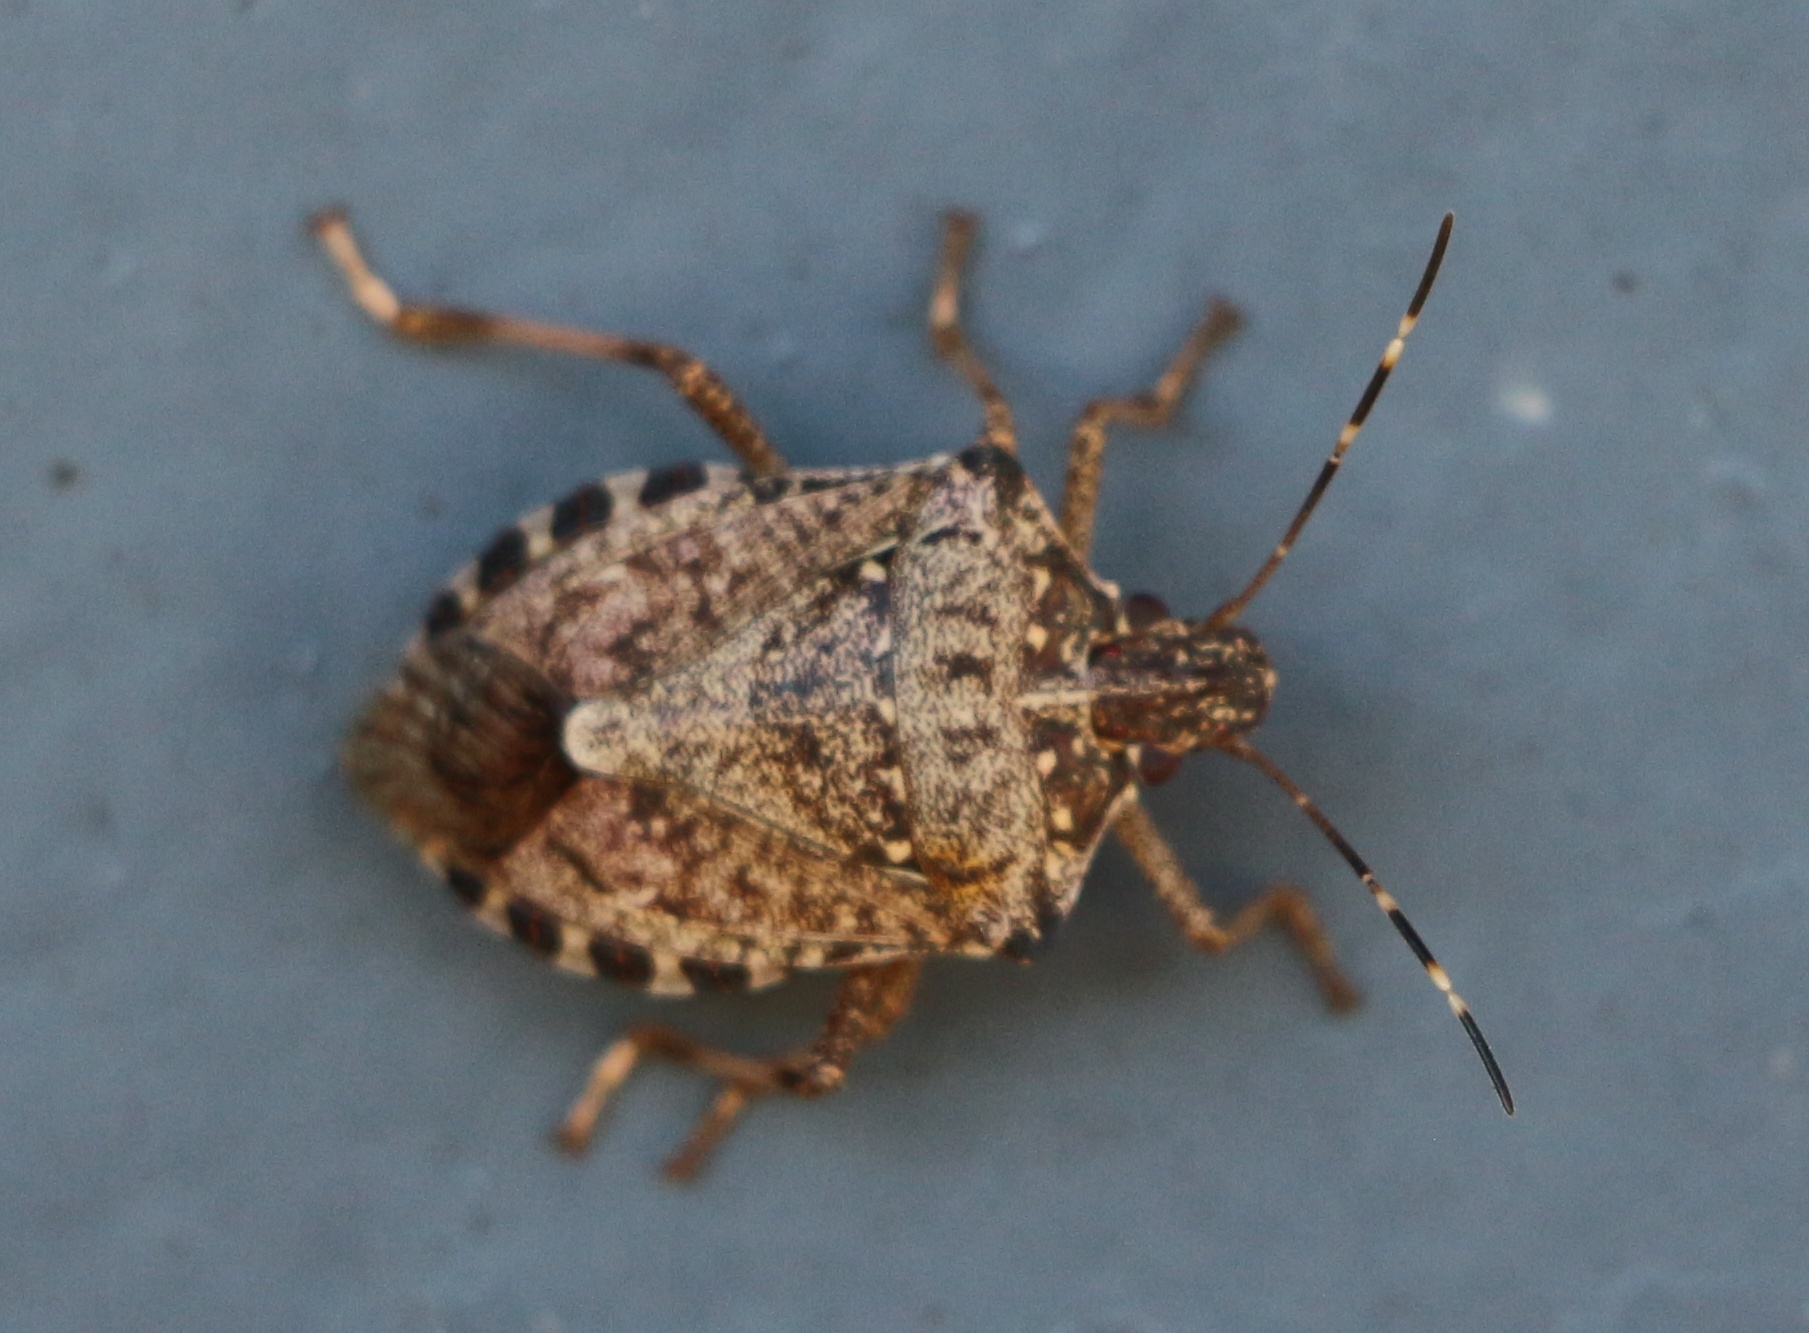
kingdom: Animalia
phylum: Arthropoda
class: Insecta
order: Hemiptera
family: Pentatomidae
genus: Halyomorpha
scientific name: Halyomorpha halys
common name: Brown marmorated stink bug
